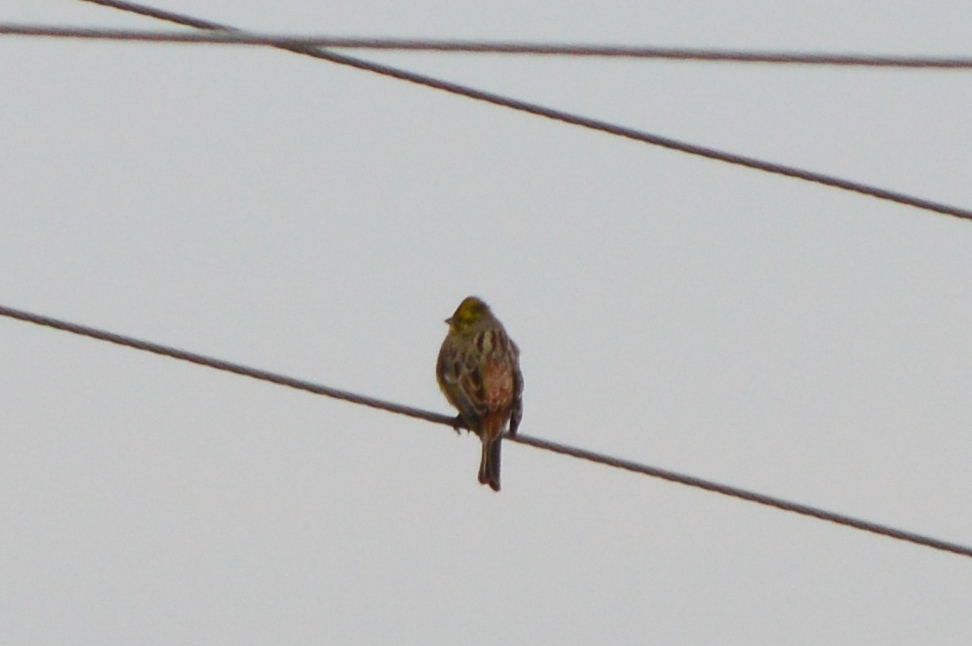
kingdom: Animalia
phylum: Chordata
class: Aves
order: Passeriformes
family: Emberizidae
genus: Emberiza
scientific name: Emberiza citrinella
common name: Yellowhammer
